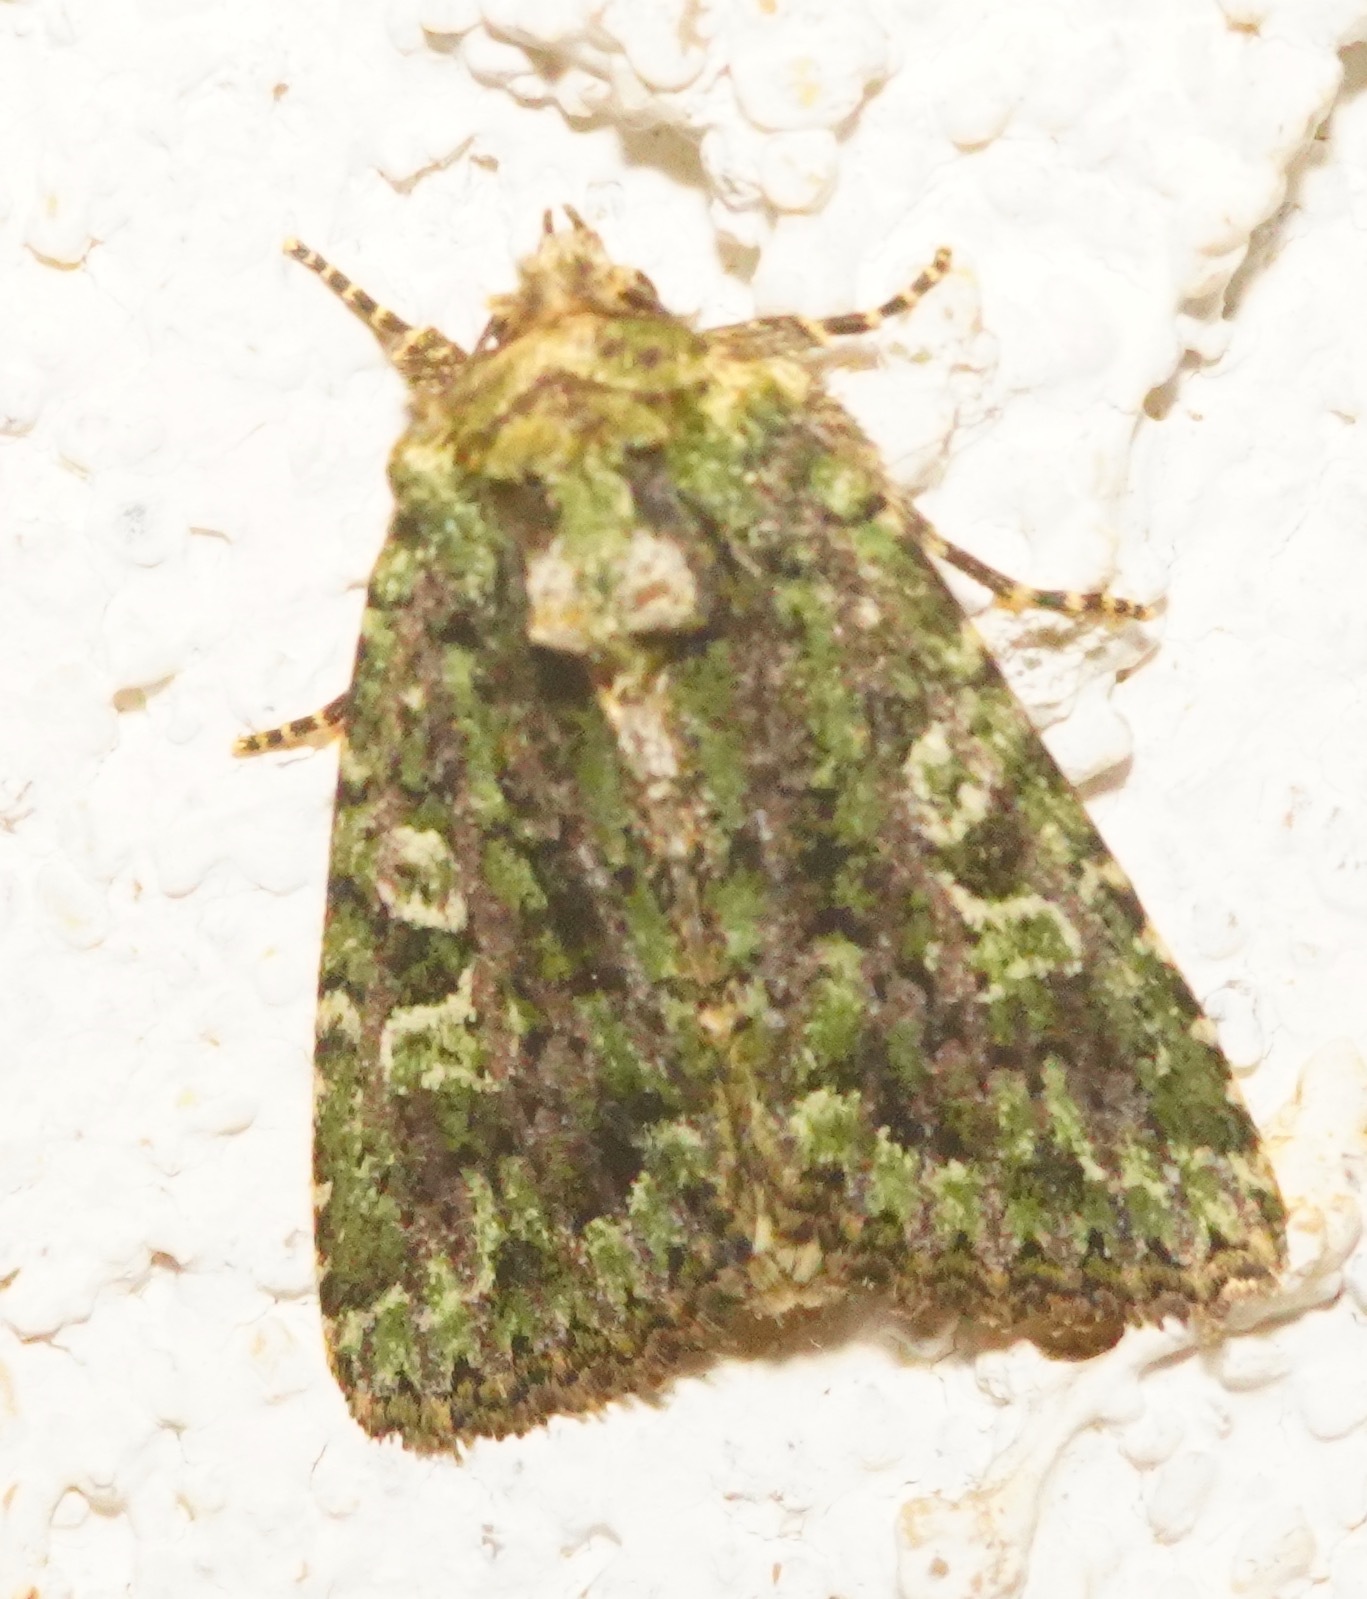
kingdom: Animalia
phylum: Arthropoda
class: Insecta
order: Lepidoptera
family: Noctuidae
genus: Aseptis
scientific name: Aseptis marina
